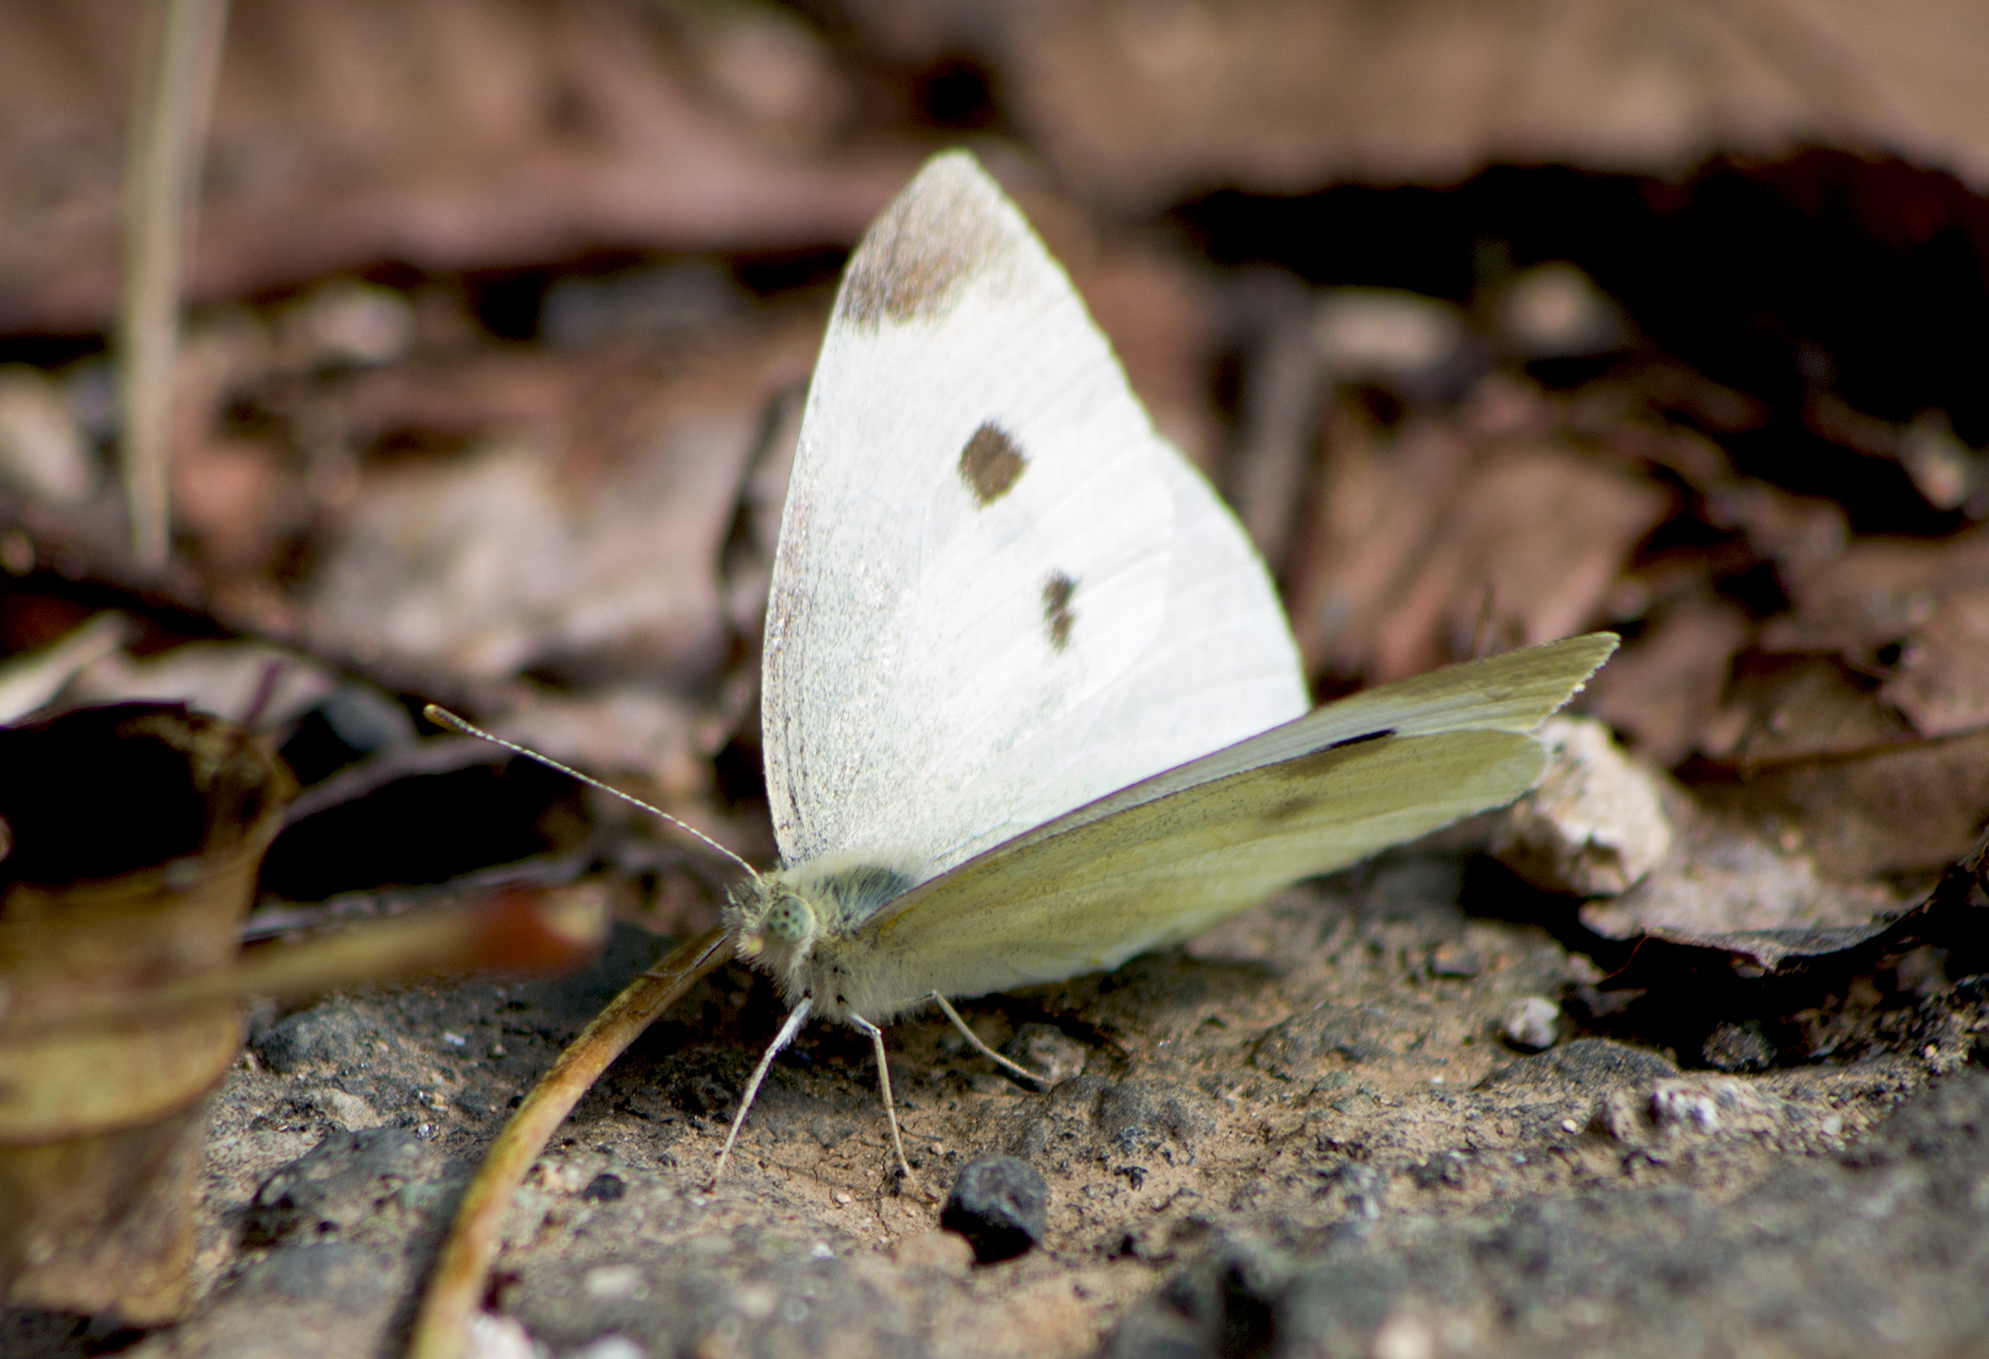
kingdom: Animalia
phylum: Arthropoda
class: Insecta
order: Lepidoptera
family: Pieridae
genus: Pieris
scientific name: Pieris rapae
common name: Small white
